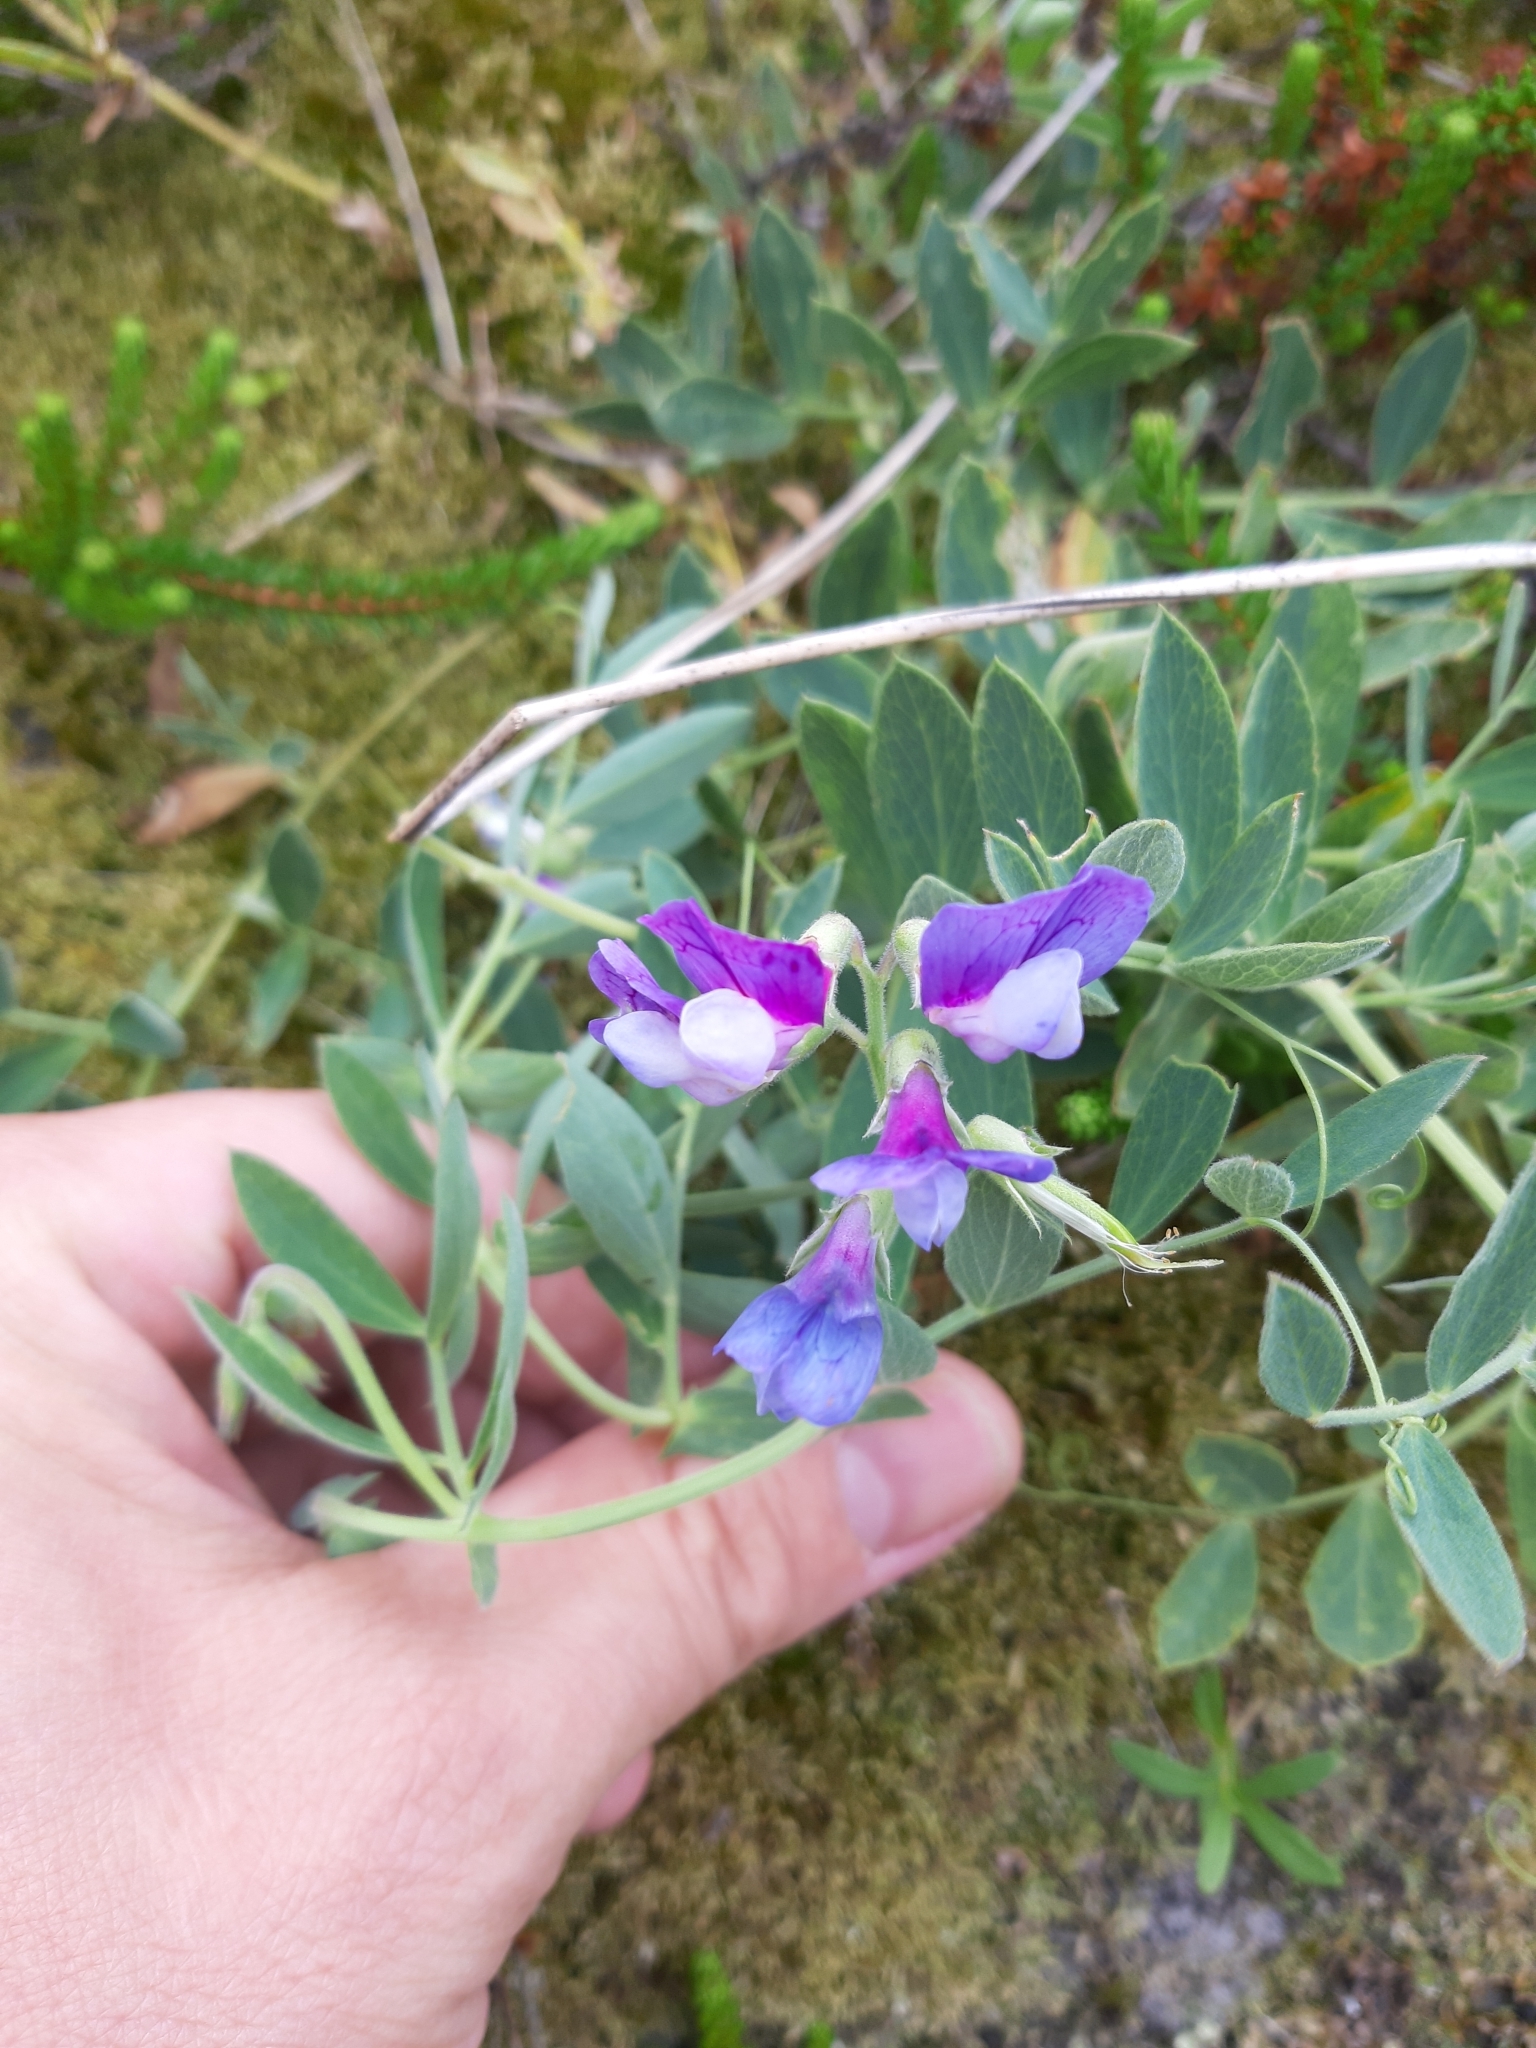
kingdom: Plantae
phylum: Tracheophyta
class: Magnoliopsida
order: Fabales
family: Fabaceae
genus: Lathyrus
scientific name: Lathyrus japonicus
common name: Sea pea
